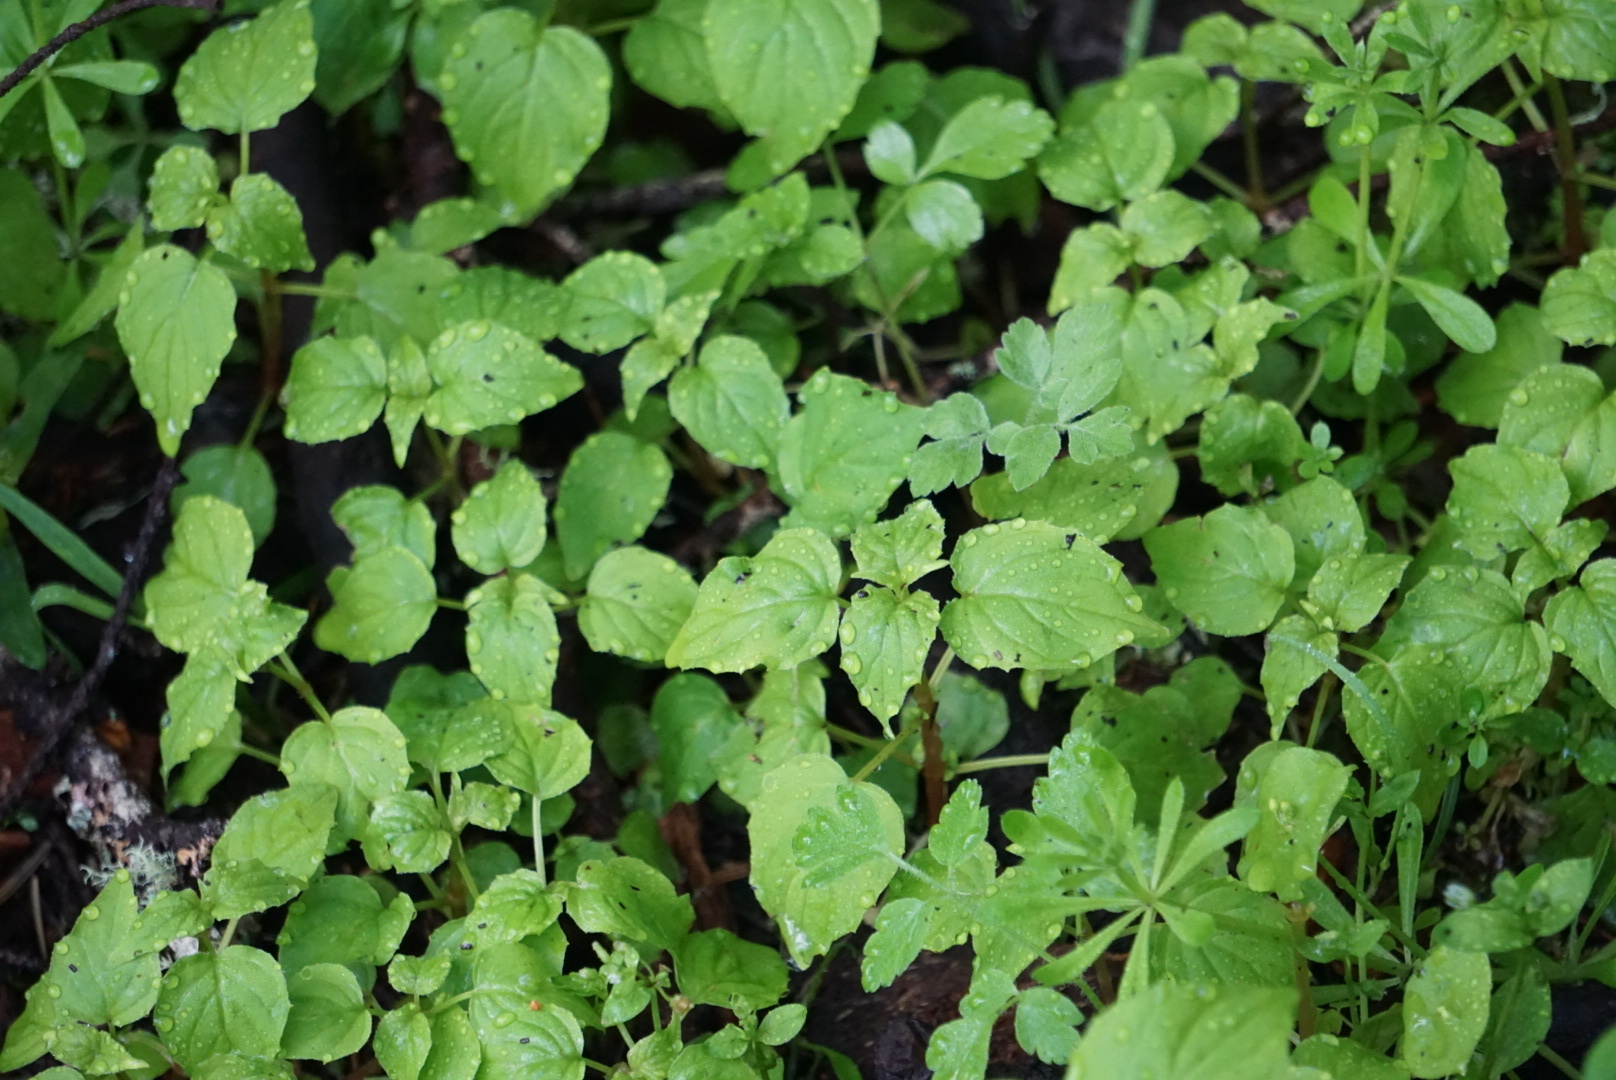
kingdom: Plantae
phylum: Tracheophyta
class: Magnoliopsida
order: Myrtales
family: Onagraceae
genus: Circaea
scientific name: Circaea alpina
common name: Alpine enchanter's-nightshade
